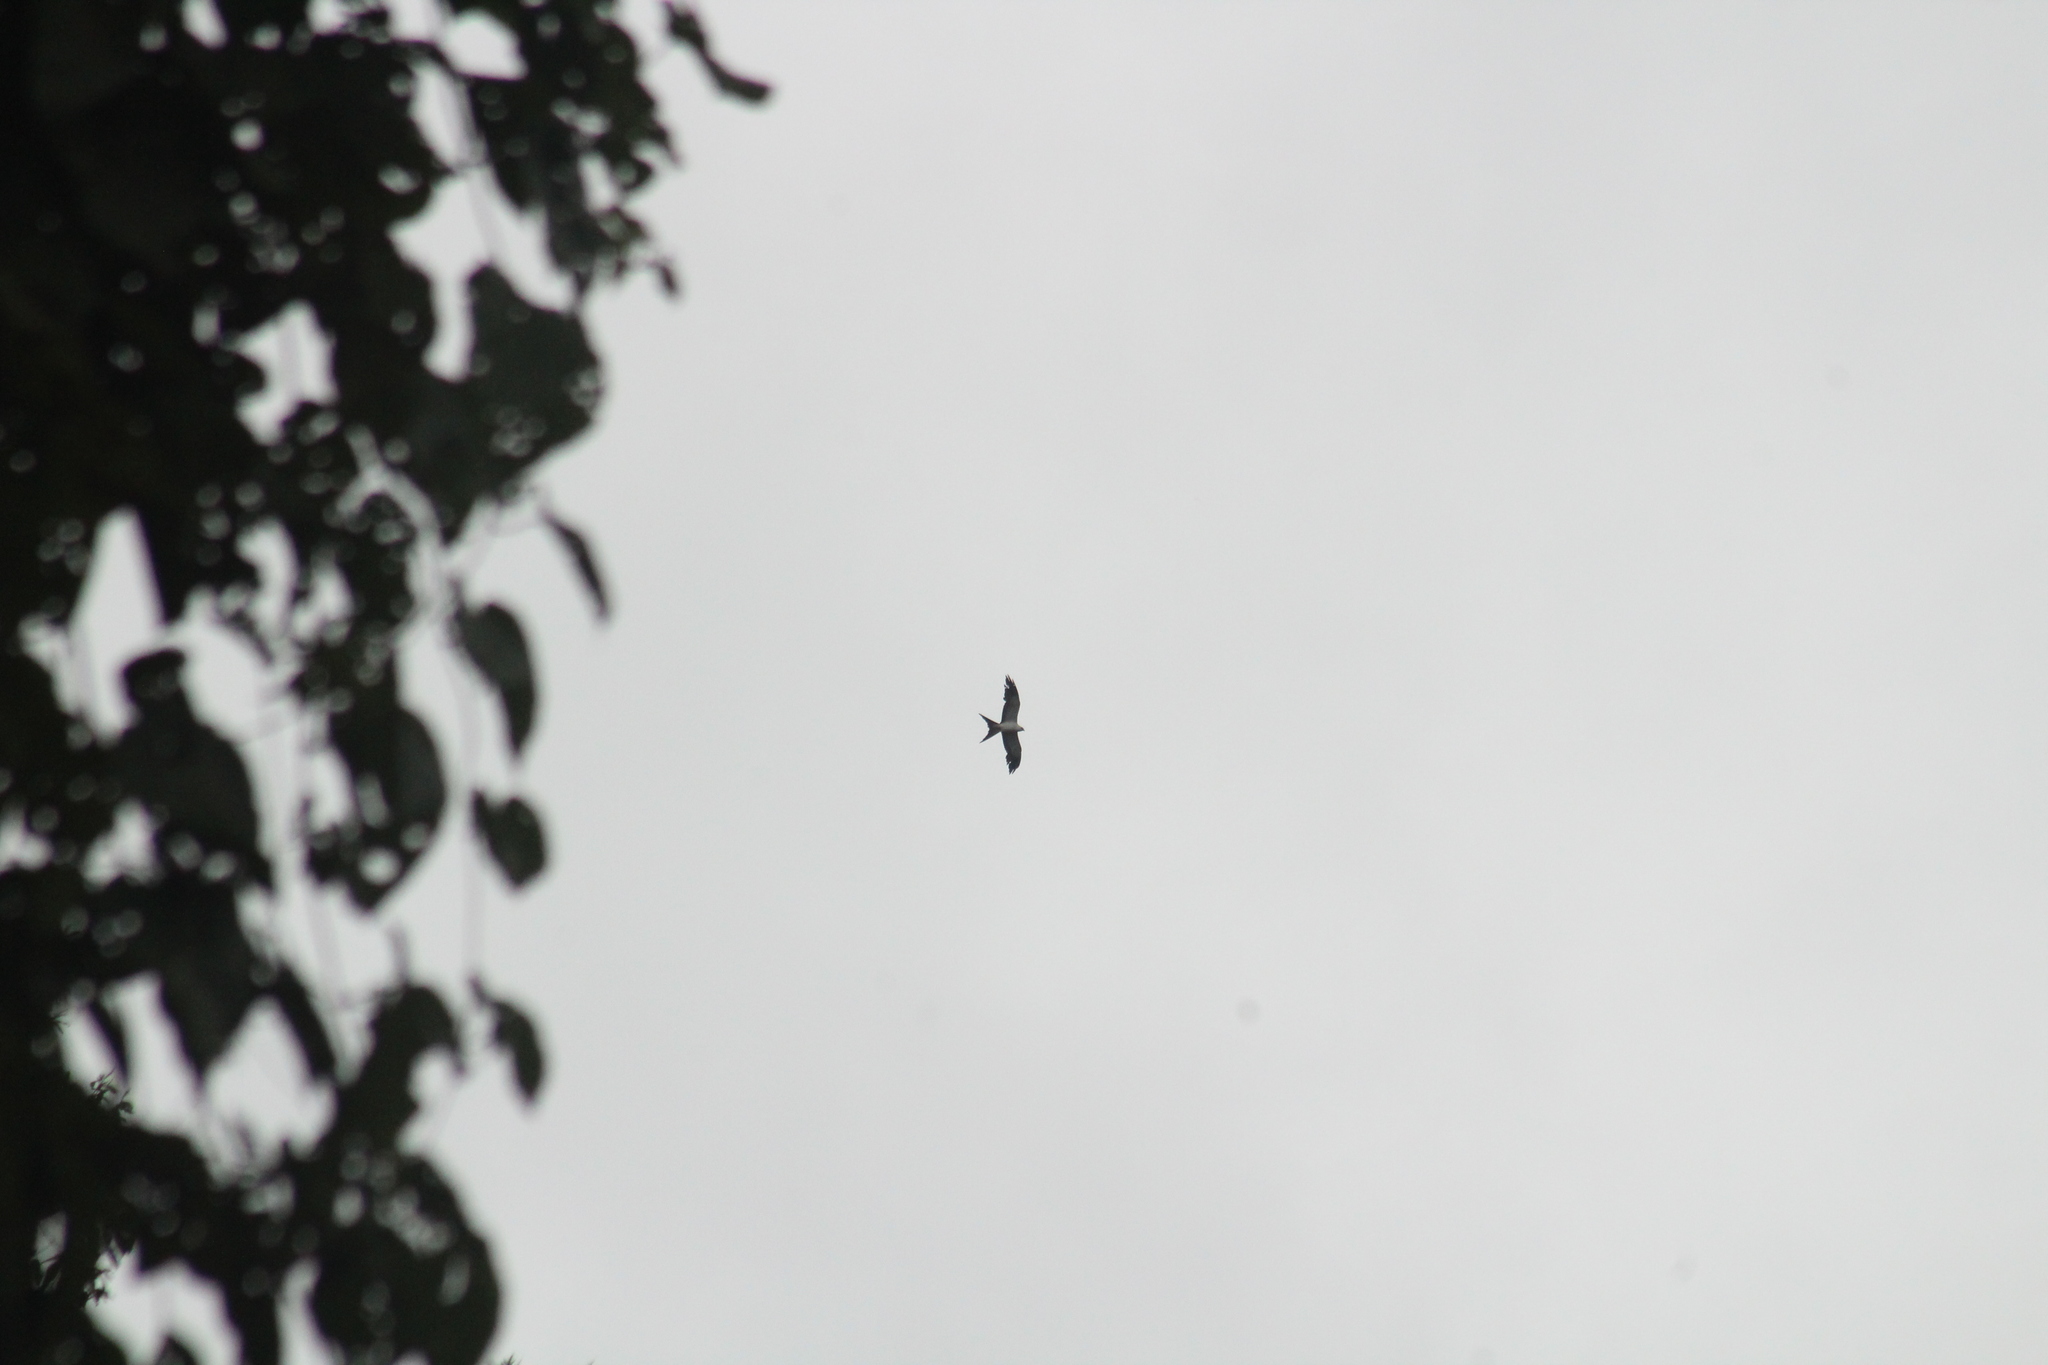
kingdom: Animalia
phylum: Chordata
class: Aves
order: Accipitriformes
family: Accipitridae
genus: Elanoides
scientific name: Elanoides forficatus
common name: Swallow-tailed kite
